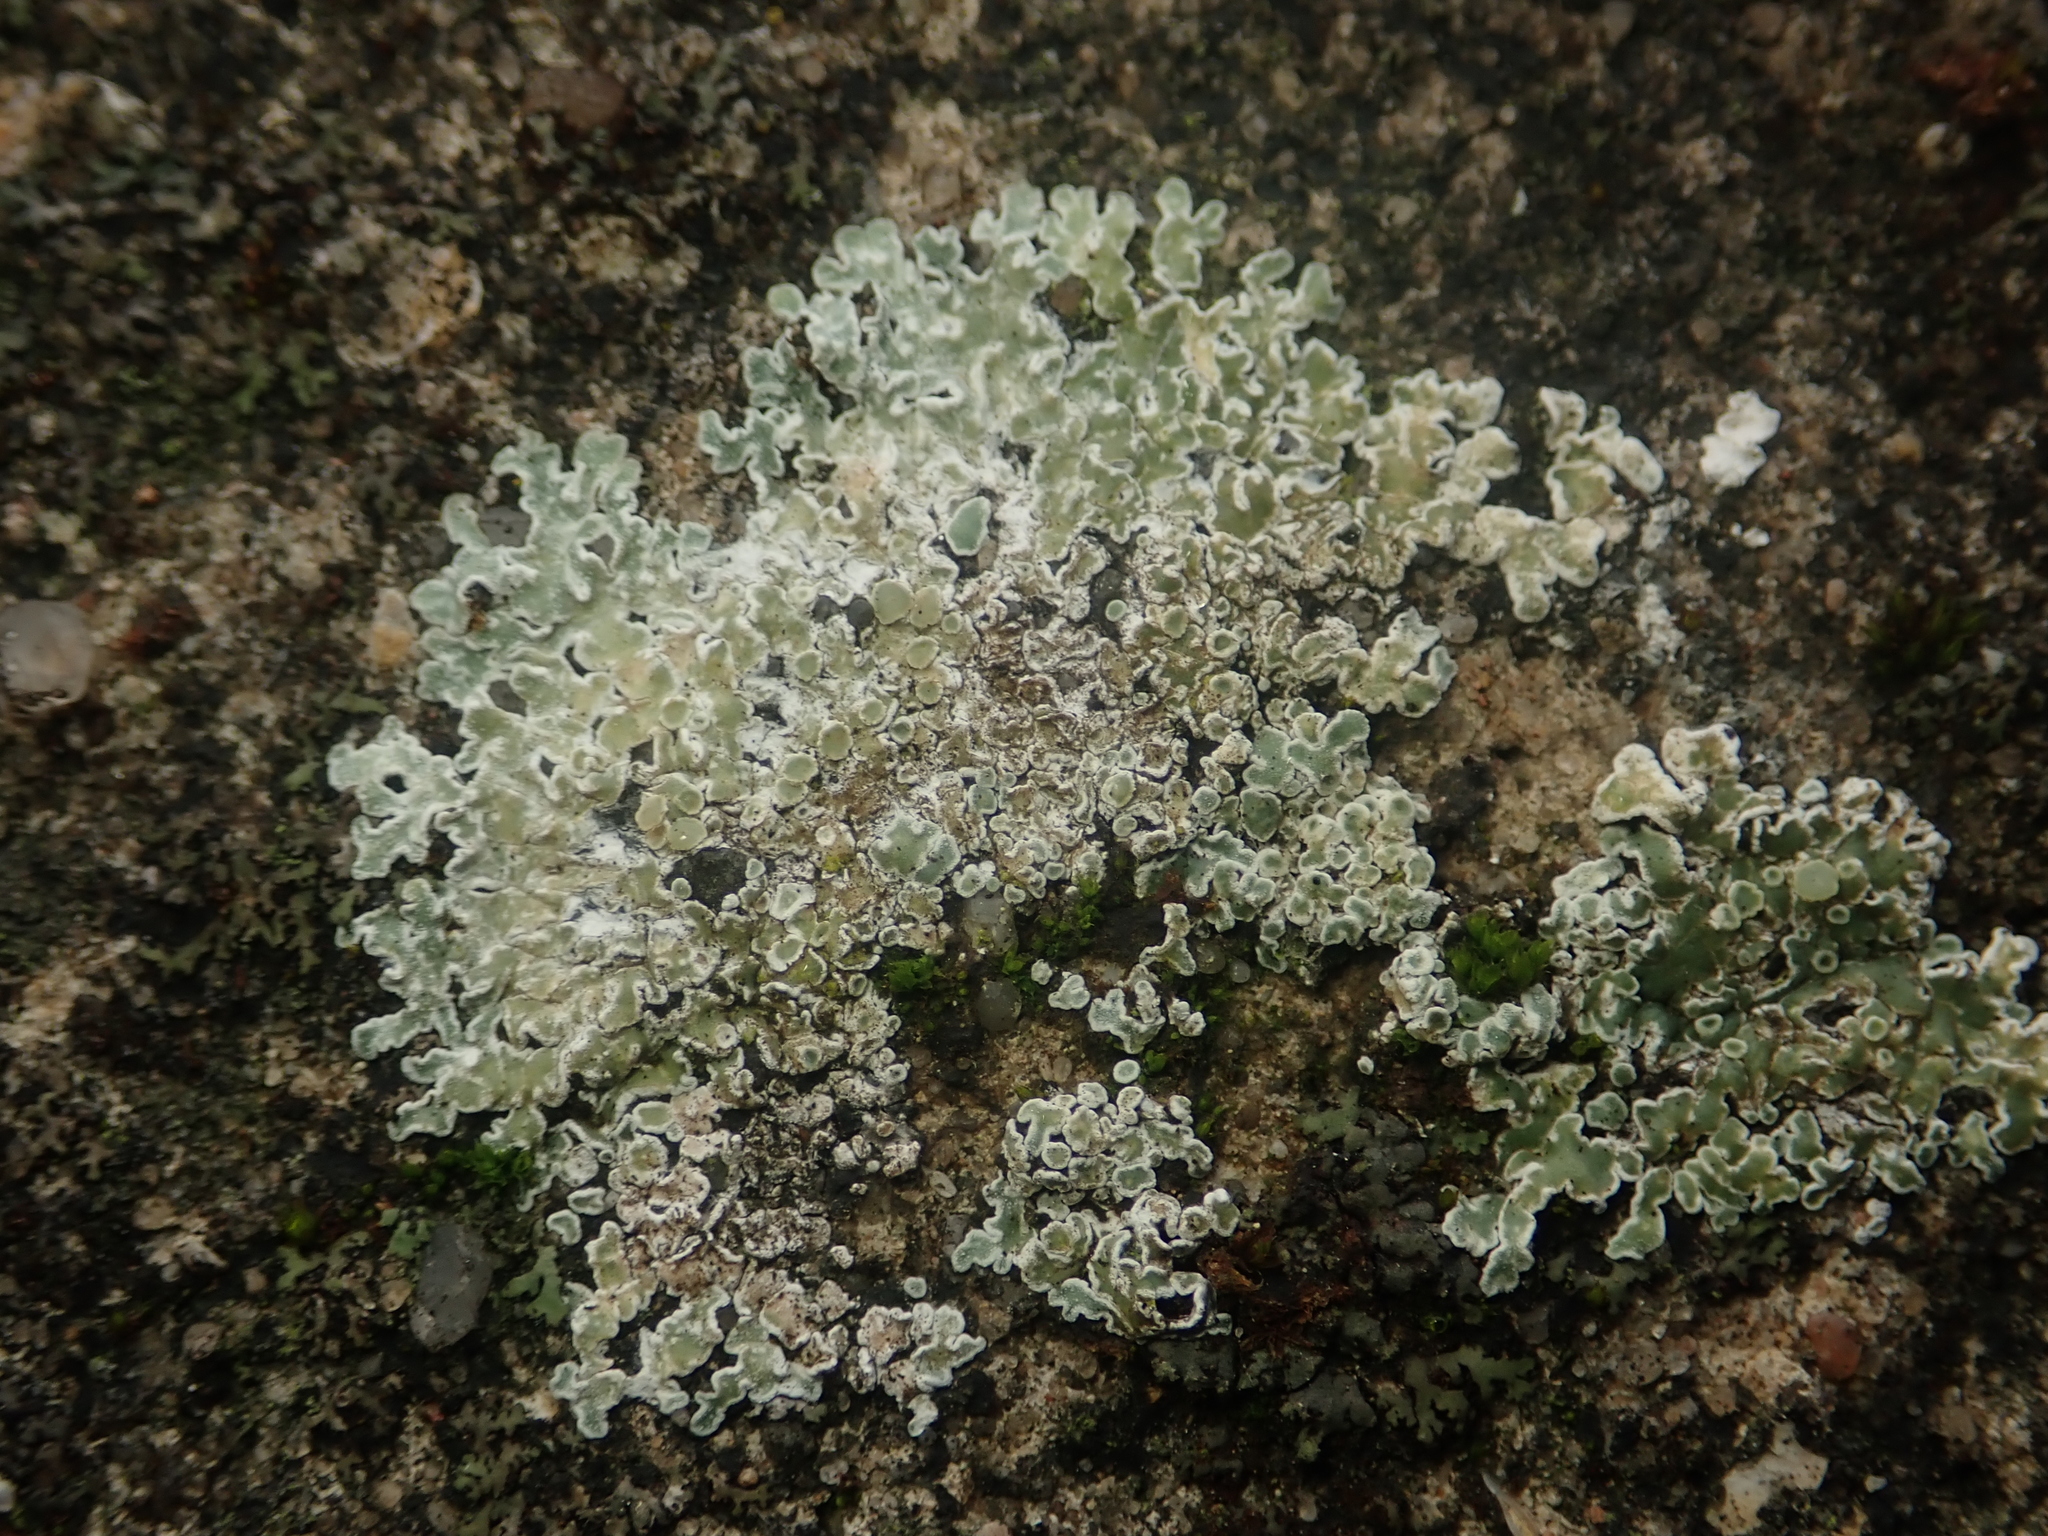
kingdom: Fungi
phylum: Ascomycota
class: Lecanoromycetes
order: Lecanorales
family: Lecanoraceae
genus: Protoparmeliopsis
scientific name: Protoparmeliopsis muralis
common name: Stonewall rim lichen
